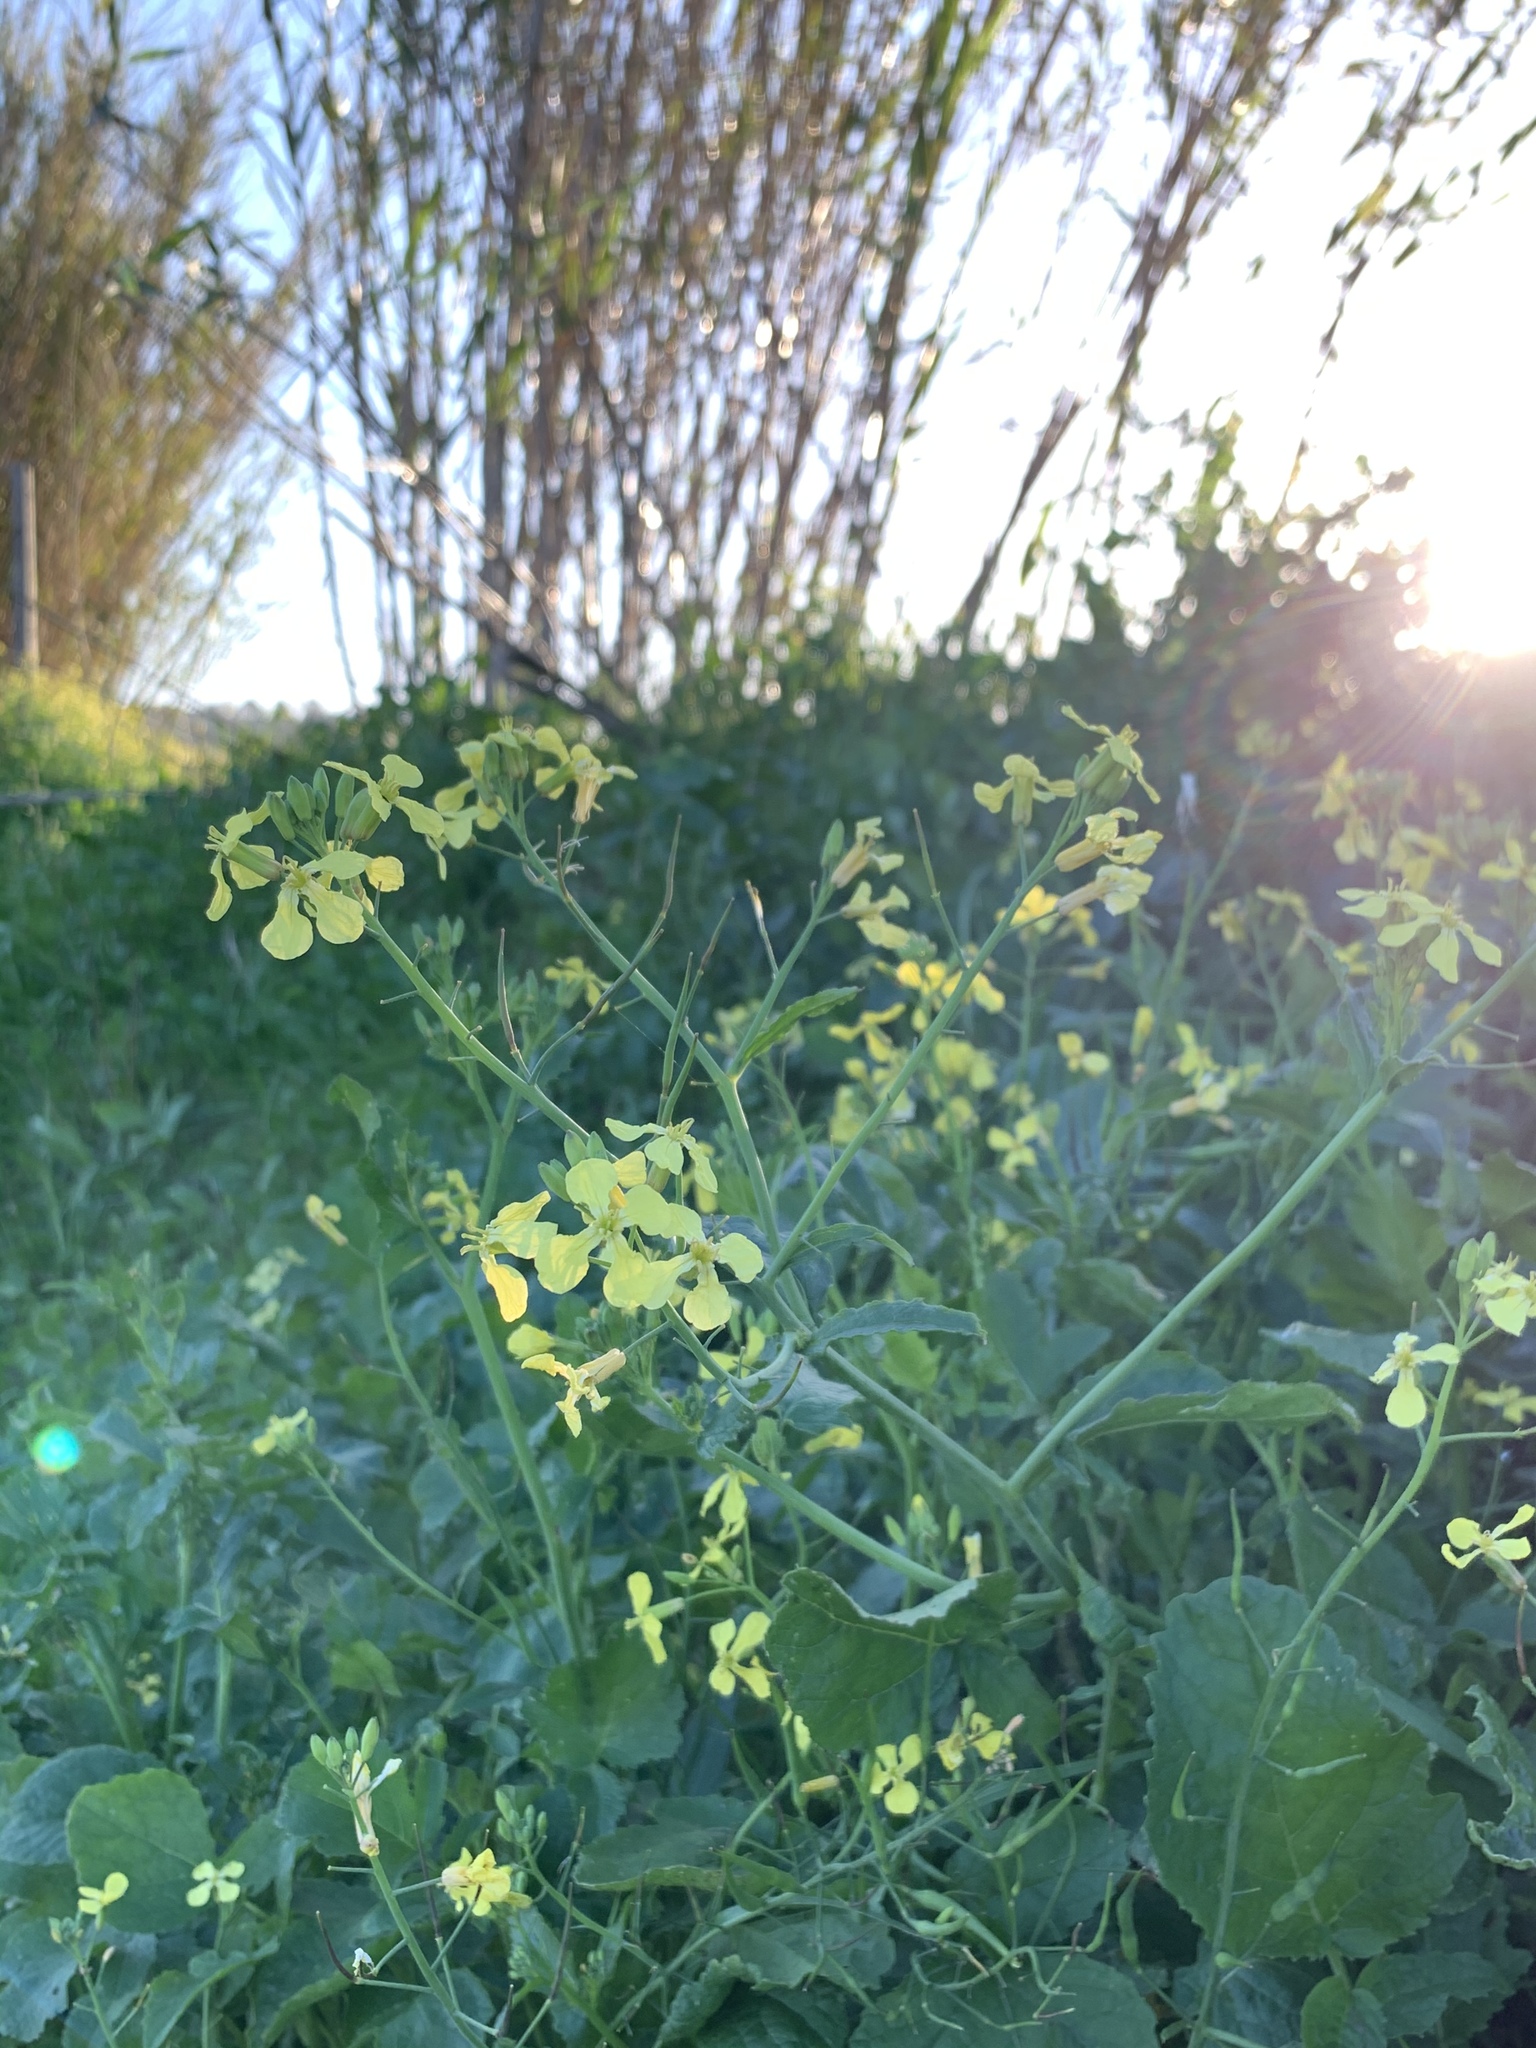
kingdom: Plantae
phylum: Tracheophyta
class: Magnoliopsida
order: Brassicales
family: Brassicaceae
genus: Raphanus
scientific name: Raphanus raphanistrum
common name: Wild radish
